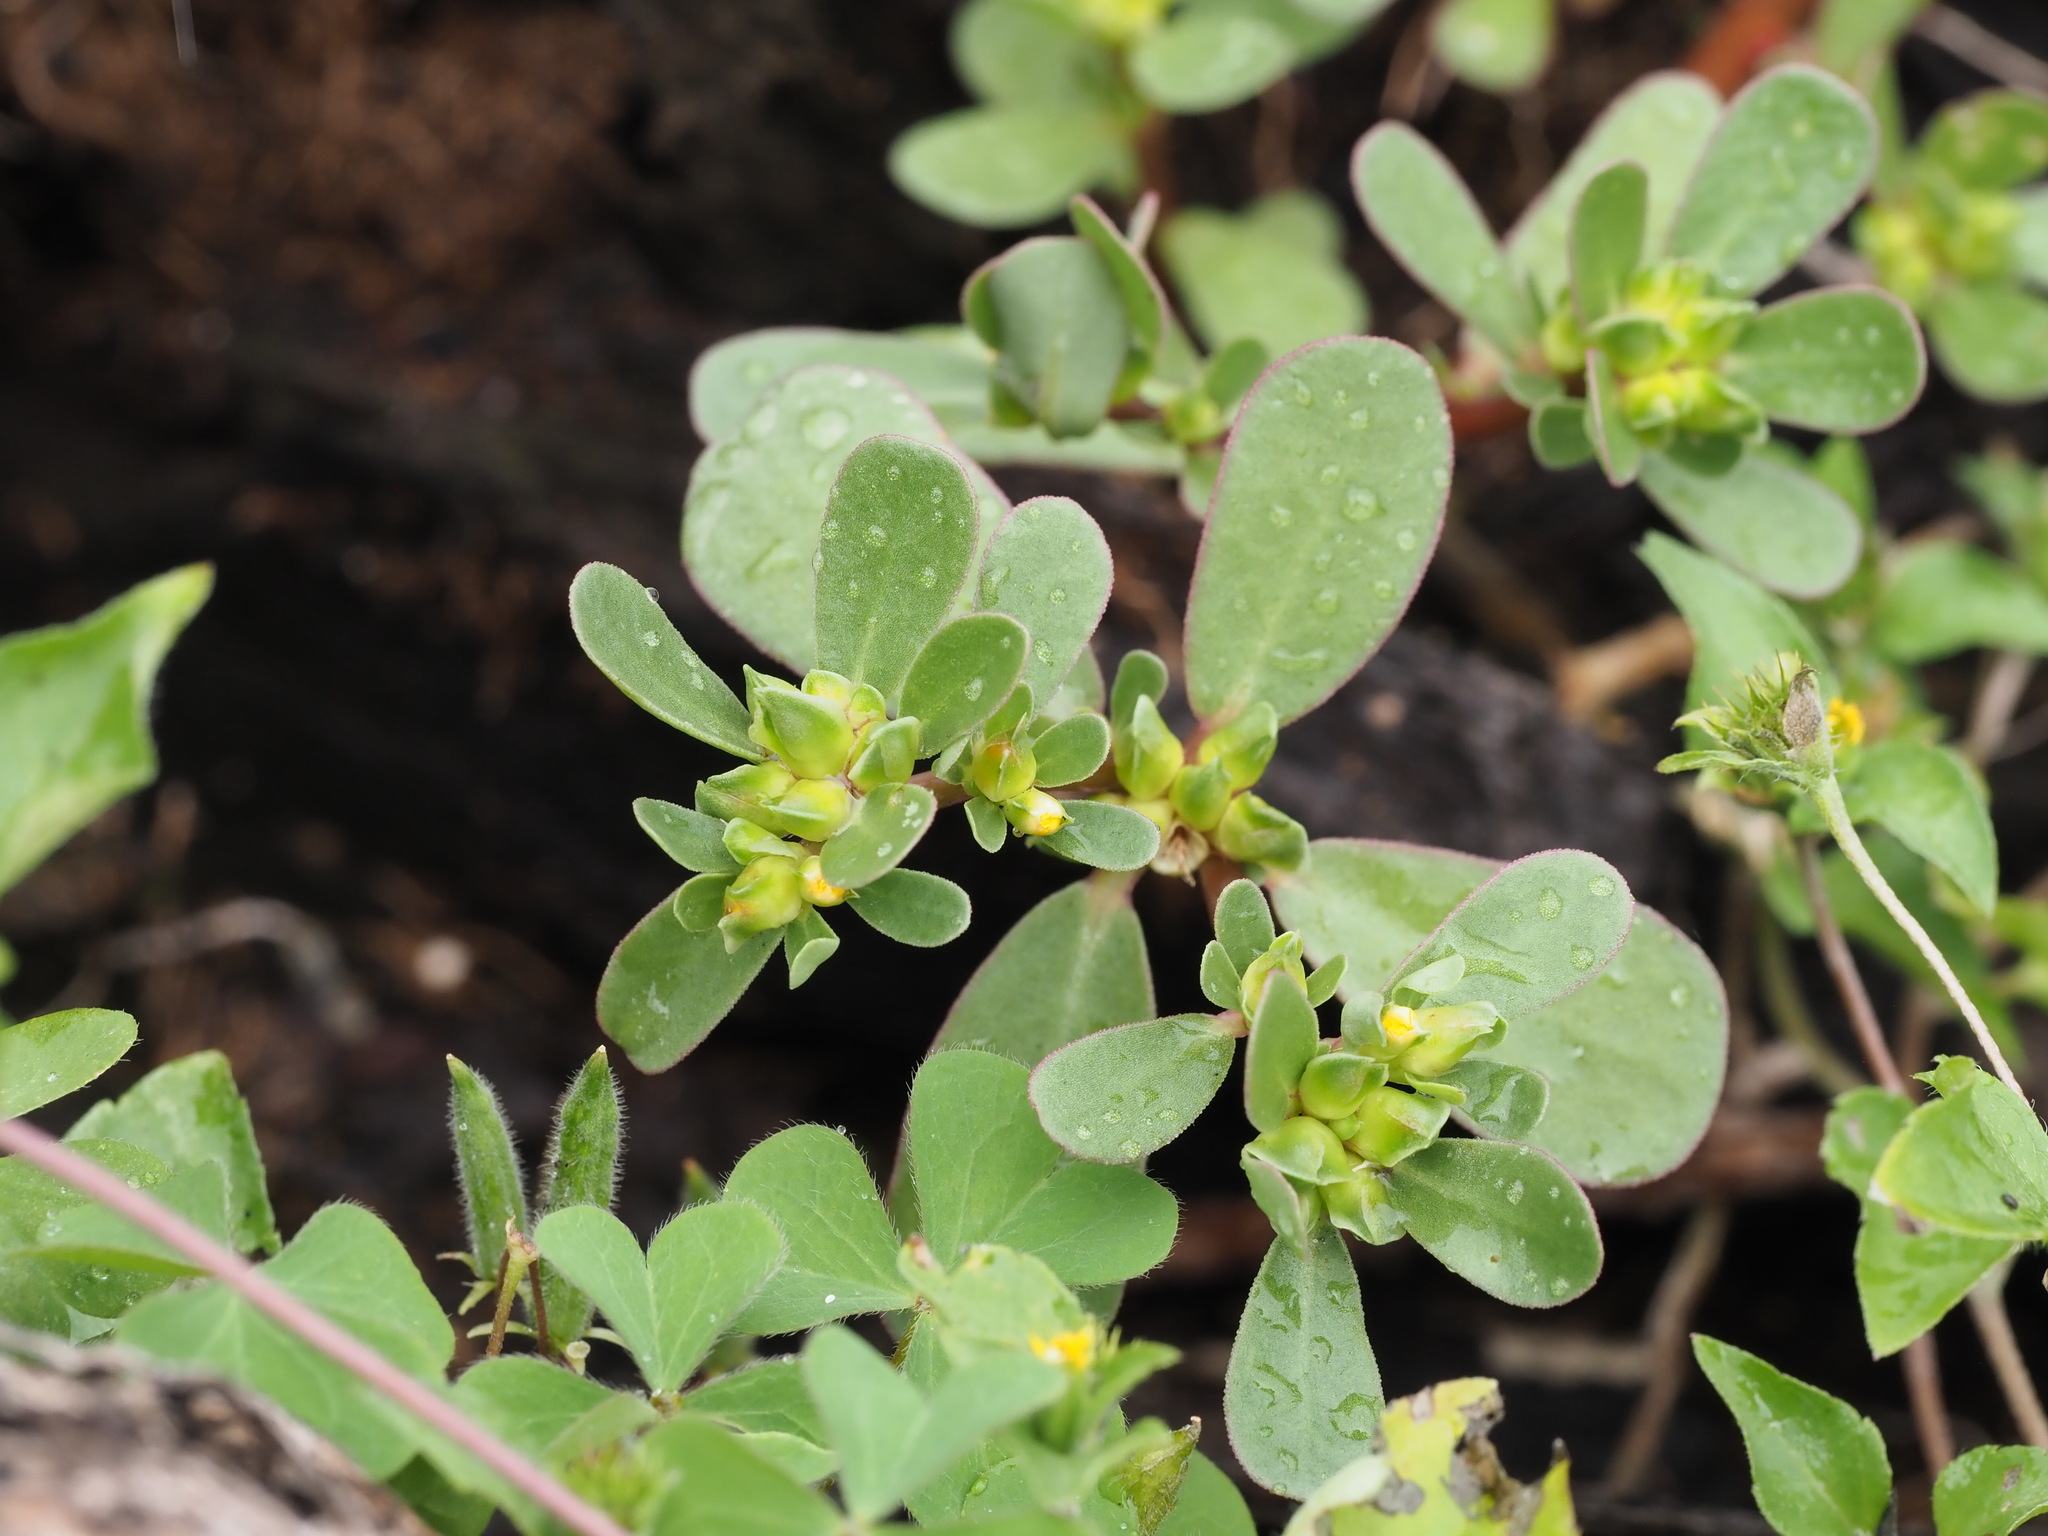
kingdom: Plantae
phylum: Tracheophyta
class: Magnoliopsida
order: Caryophyllales
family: Portulacaceae
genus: Portulaca
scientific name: Portulaca oleracea
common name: Common purslane
